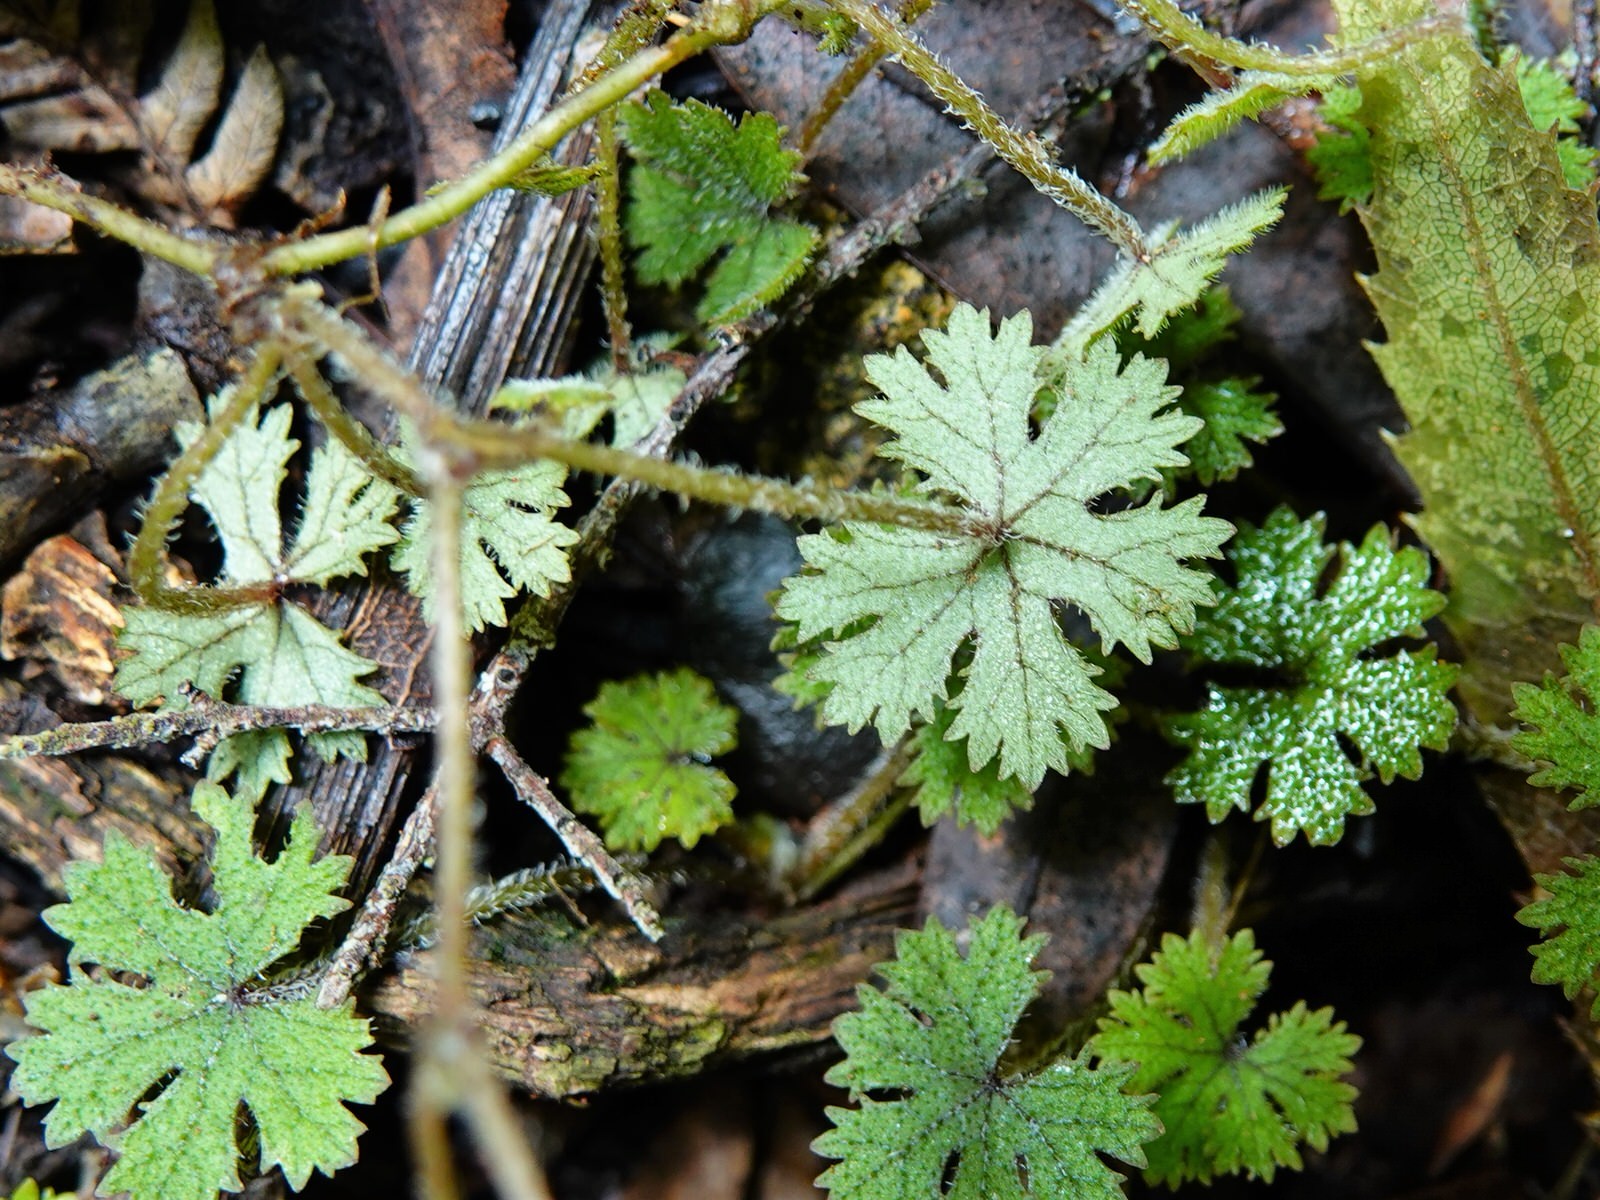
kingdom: Plantae
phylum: Tracheophyta
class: Magnoliopsida
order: Apiales
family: Araliaceae
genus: Hydrocotyle
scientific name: Hydrocotyle dissecta
